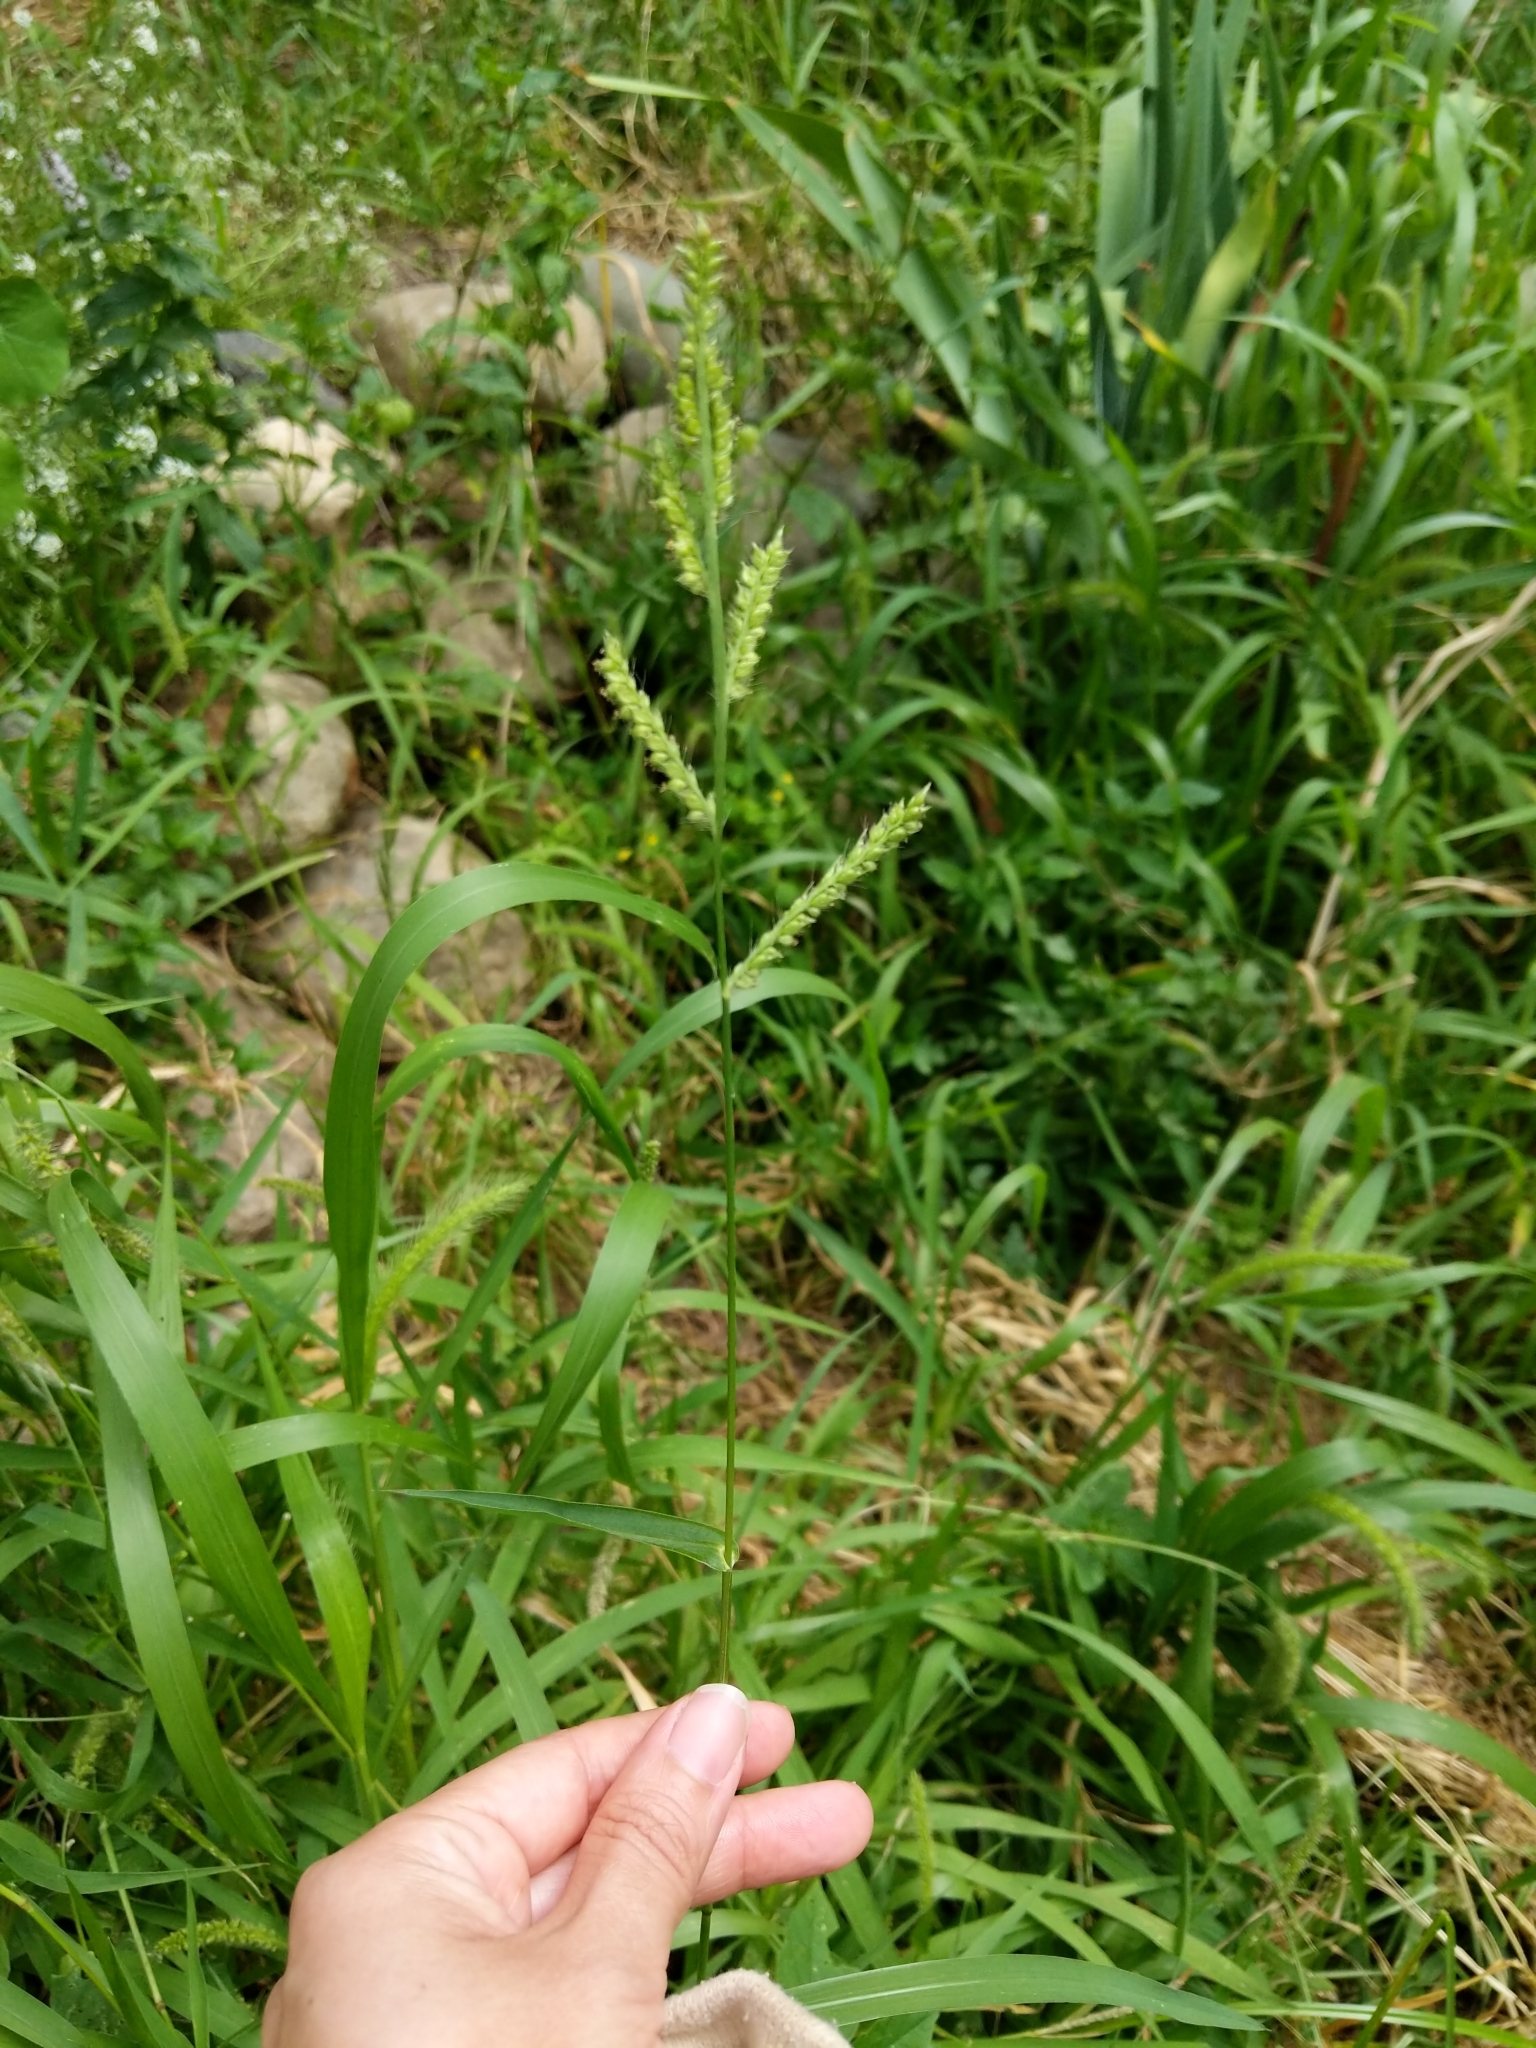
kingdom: Plantae
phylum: Tracheophyta
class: Liliopsida
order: Poales
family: Poaceae
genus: Echinochloa
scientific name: Echinochloa crus-galli
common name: Cockspur
